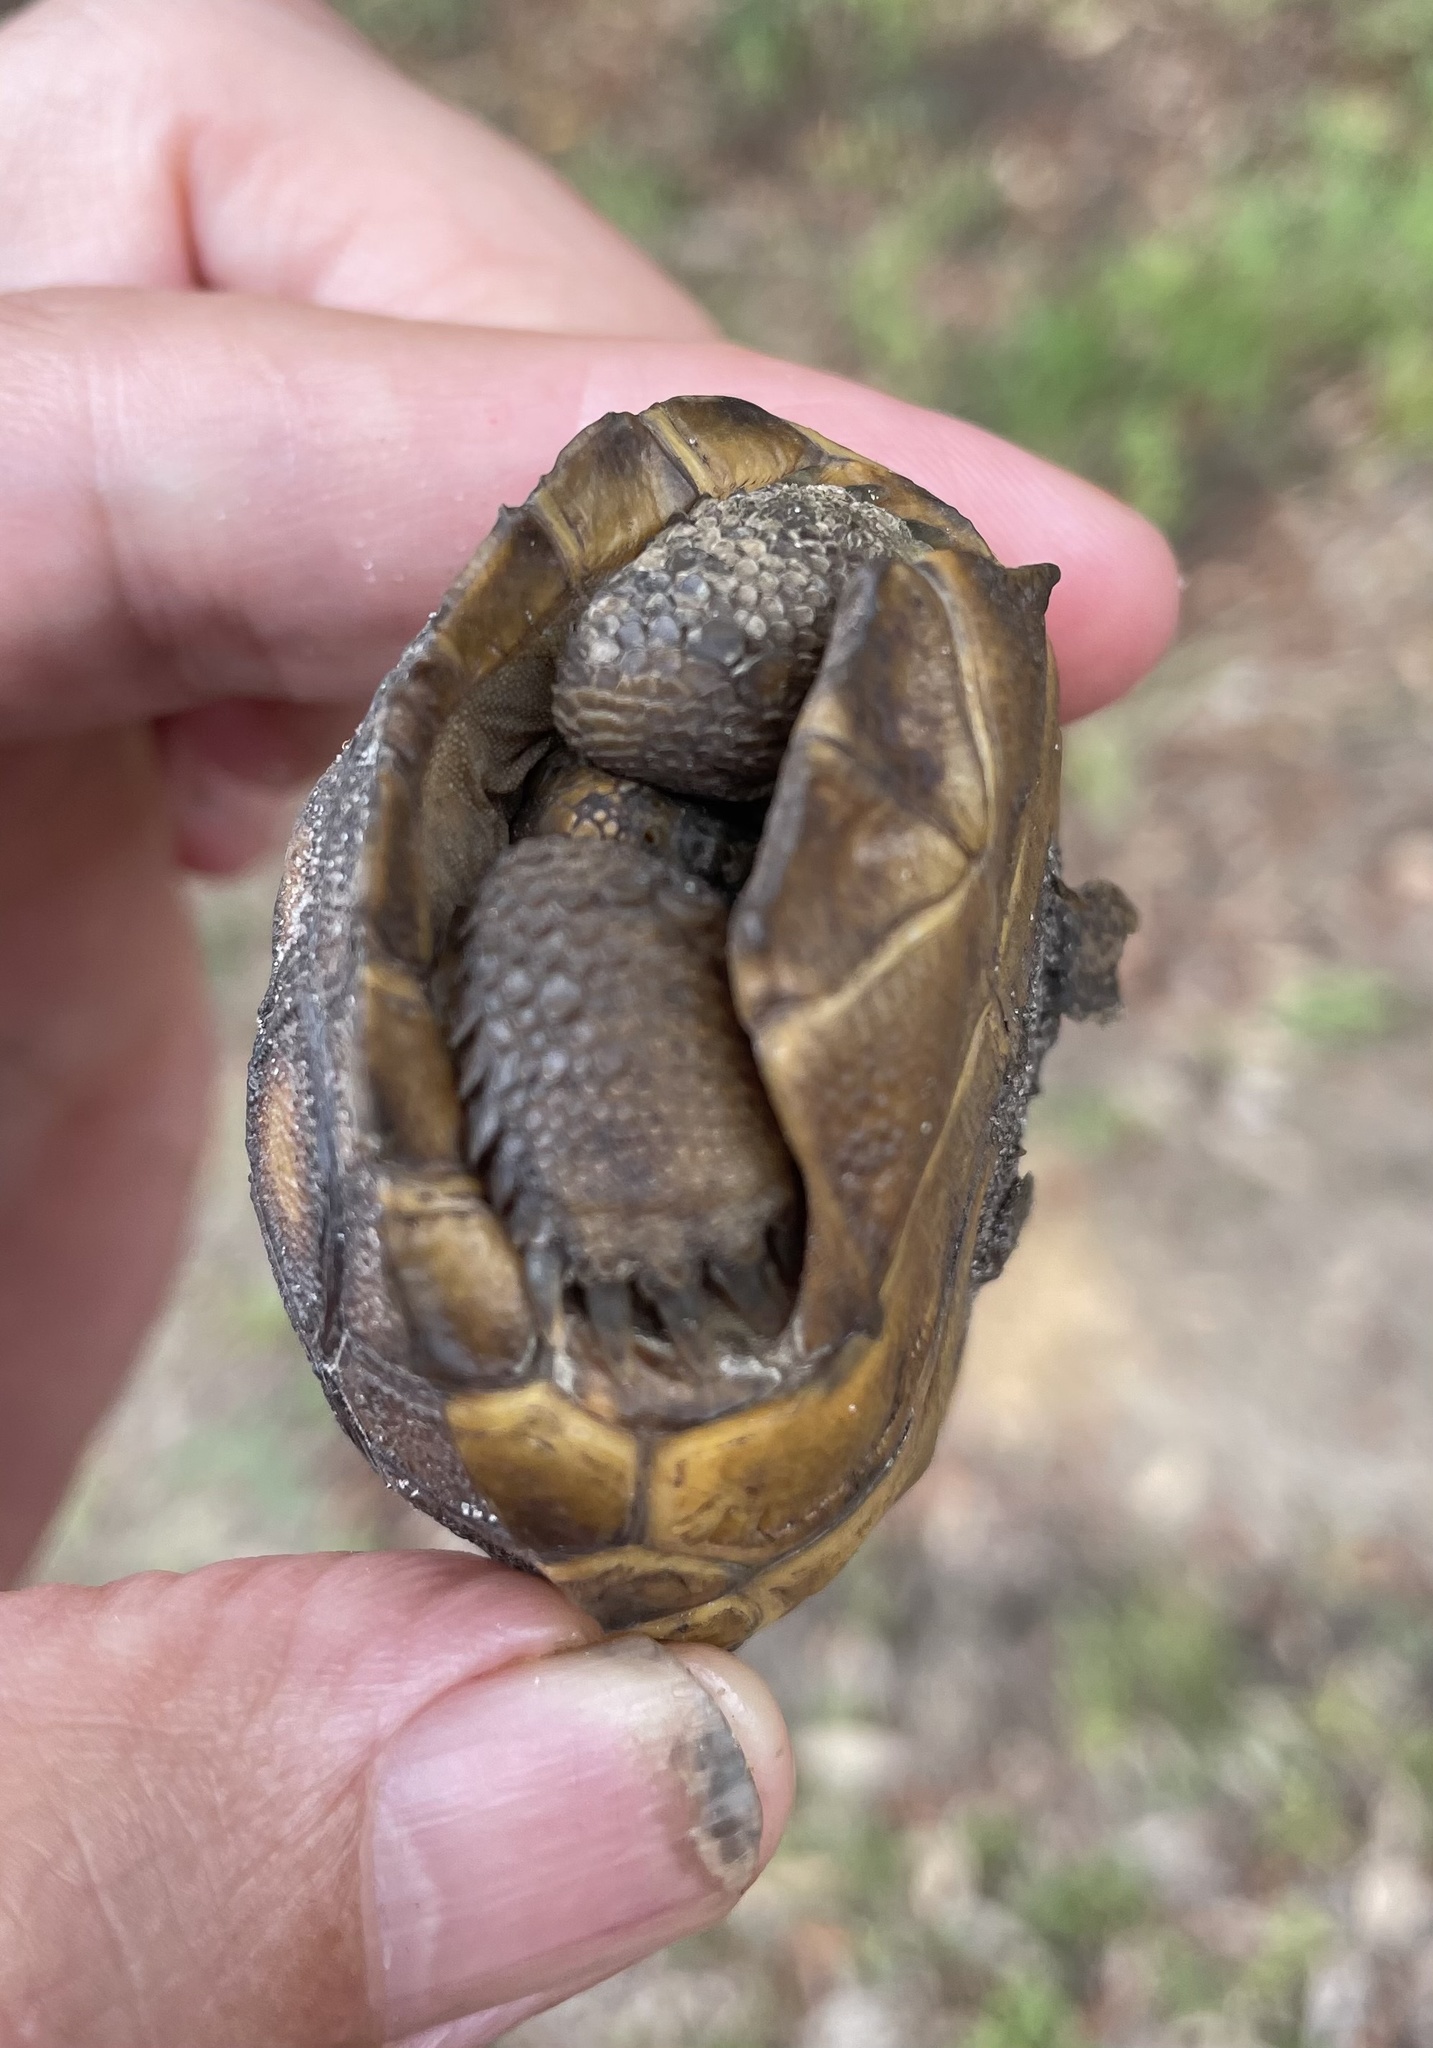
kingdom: Animalia
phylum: Chordata
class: Testudines
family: Testudinidae
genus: Gopherus
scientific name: Gopherus polyphemus
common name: Florida gopher tortoise
